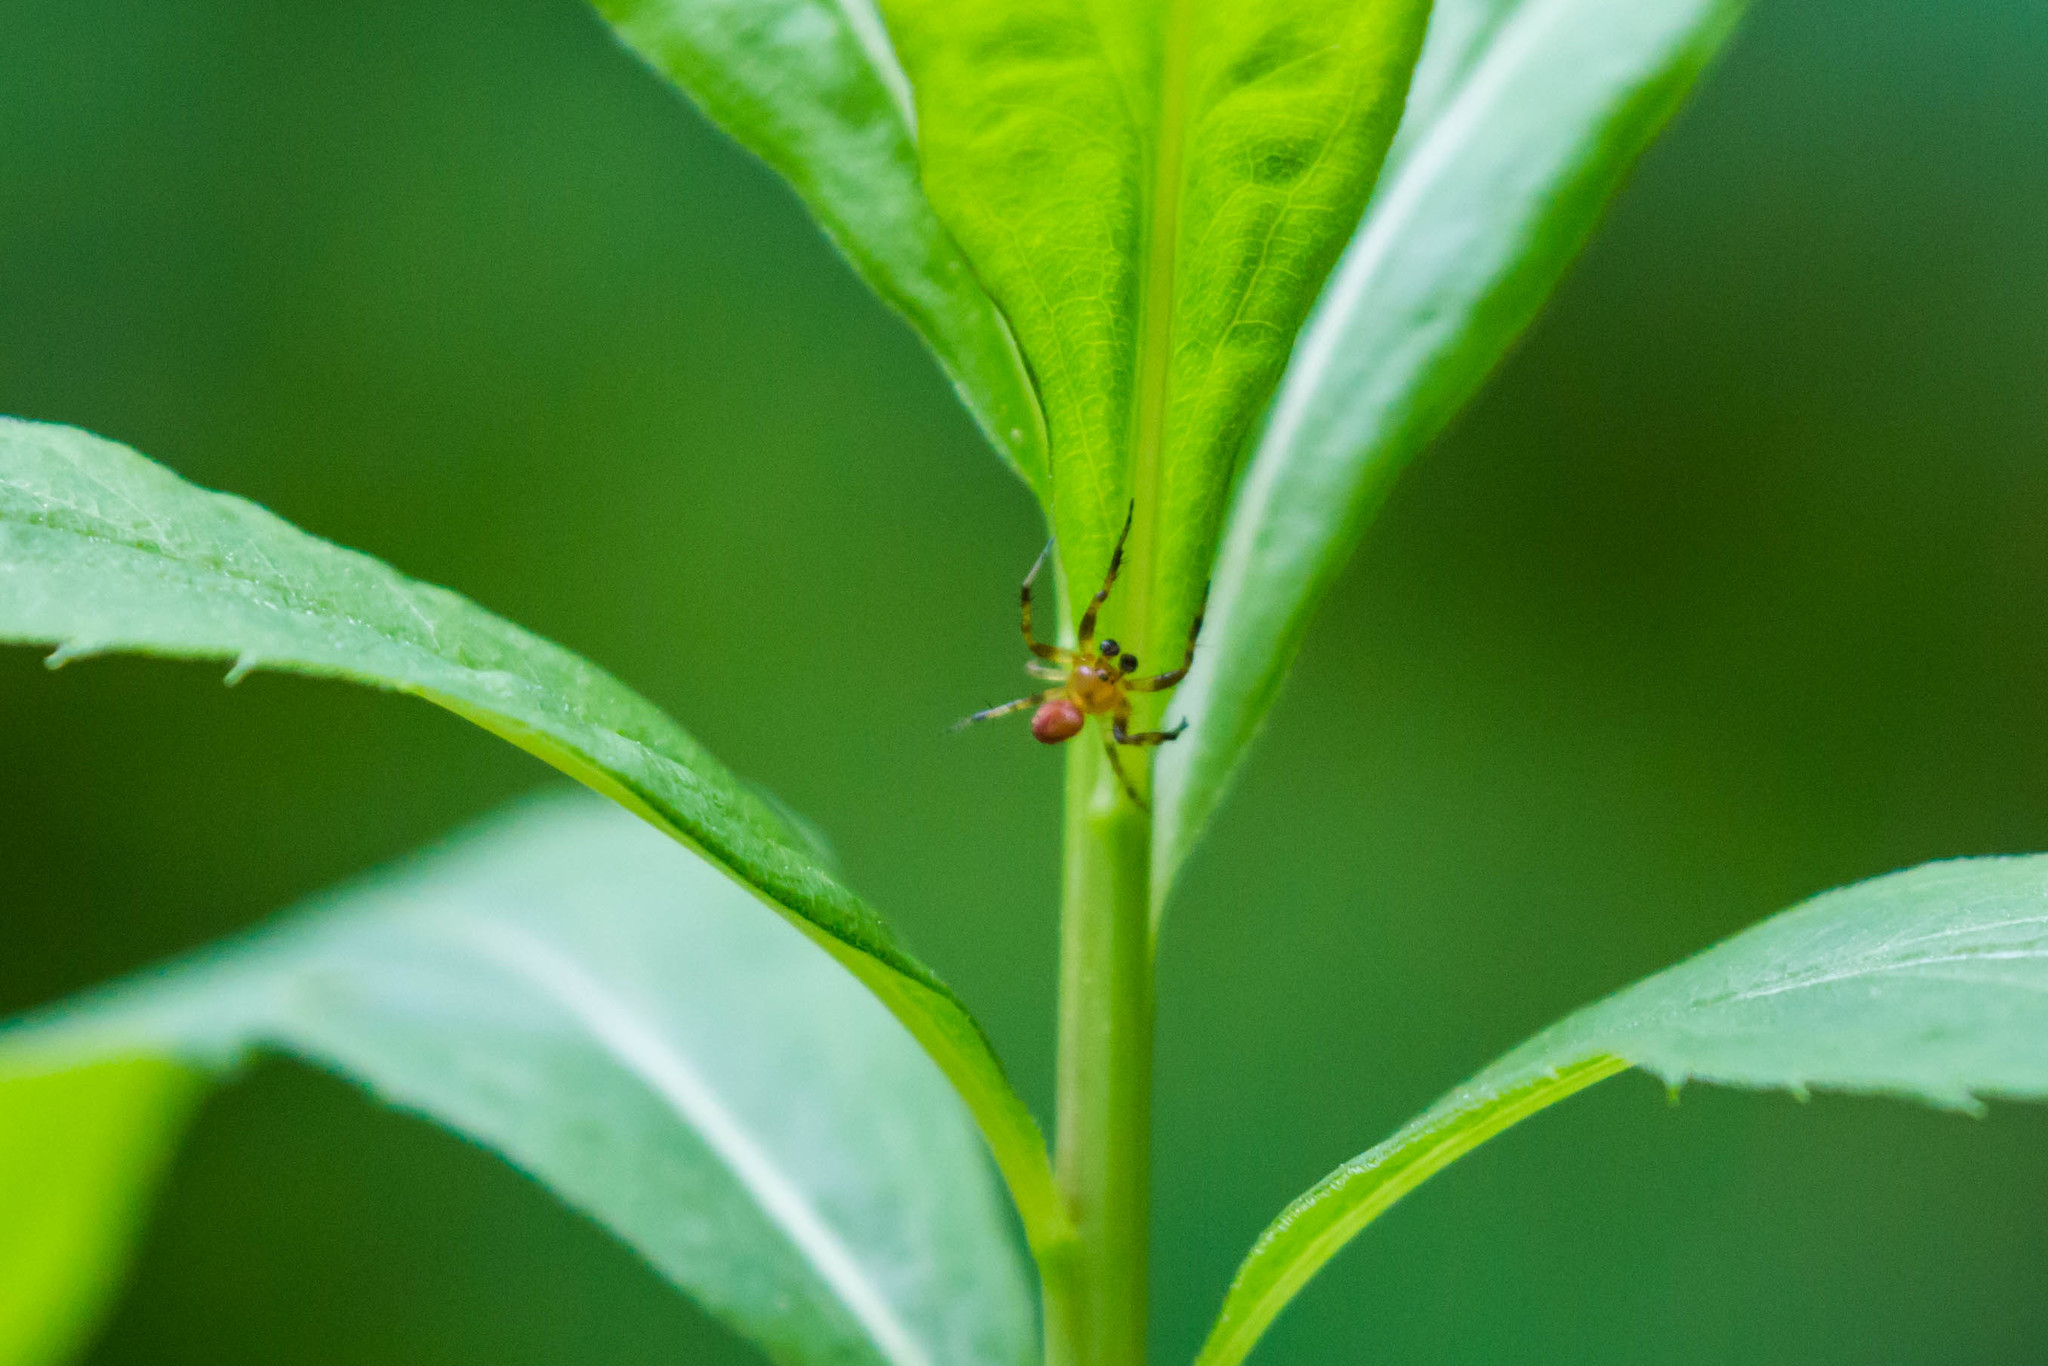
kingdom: Animalia
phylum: Arthropoda
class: Arachnida
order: Araneae
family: Araneidae
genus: Araniella
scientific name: Araniella displicata
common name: Sixspotted orb weaver
